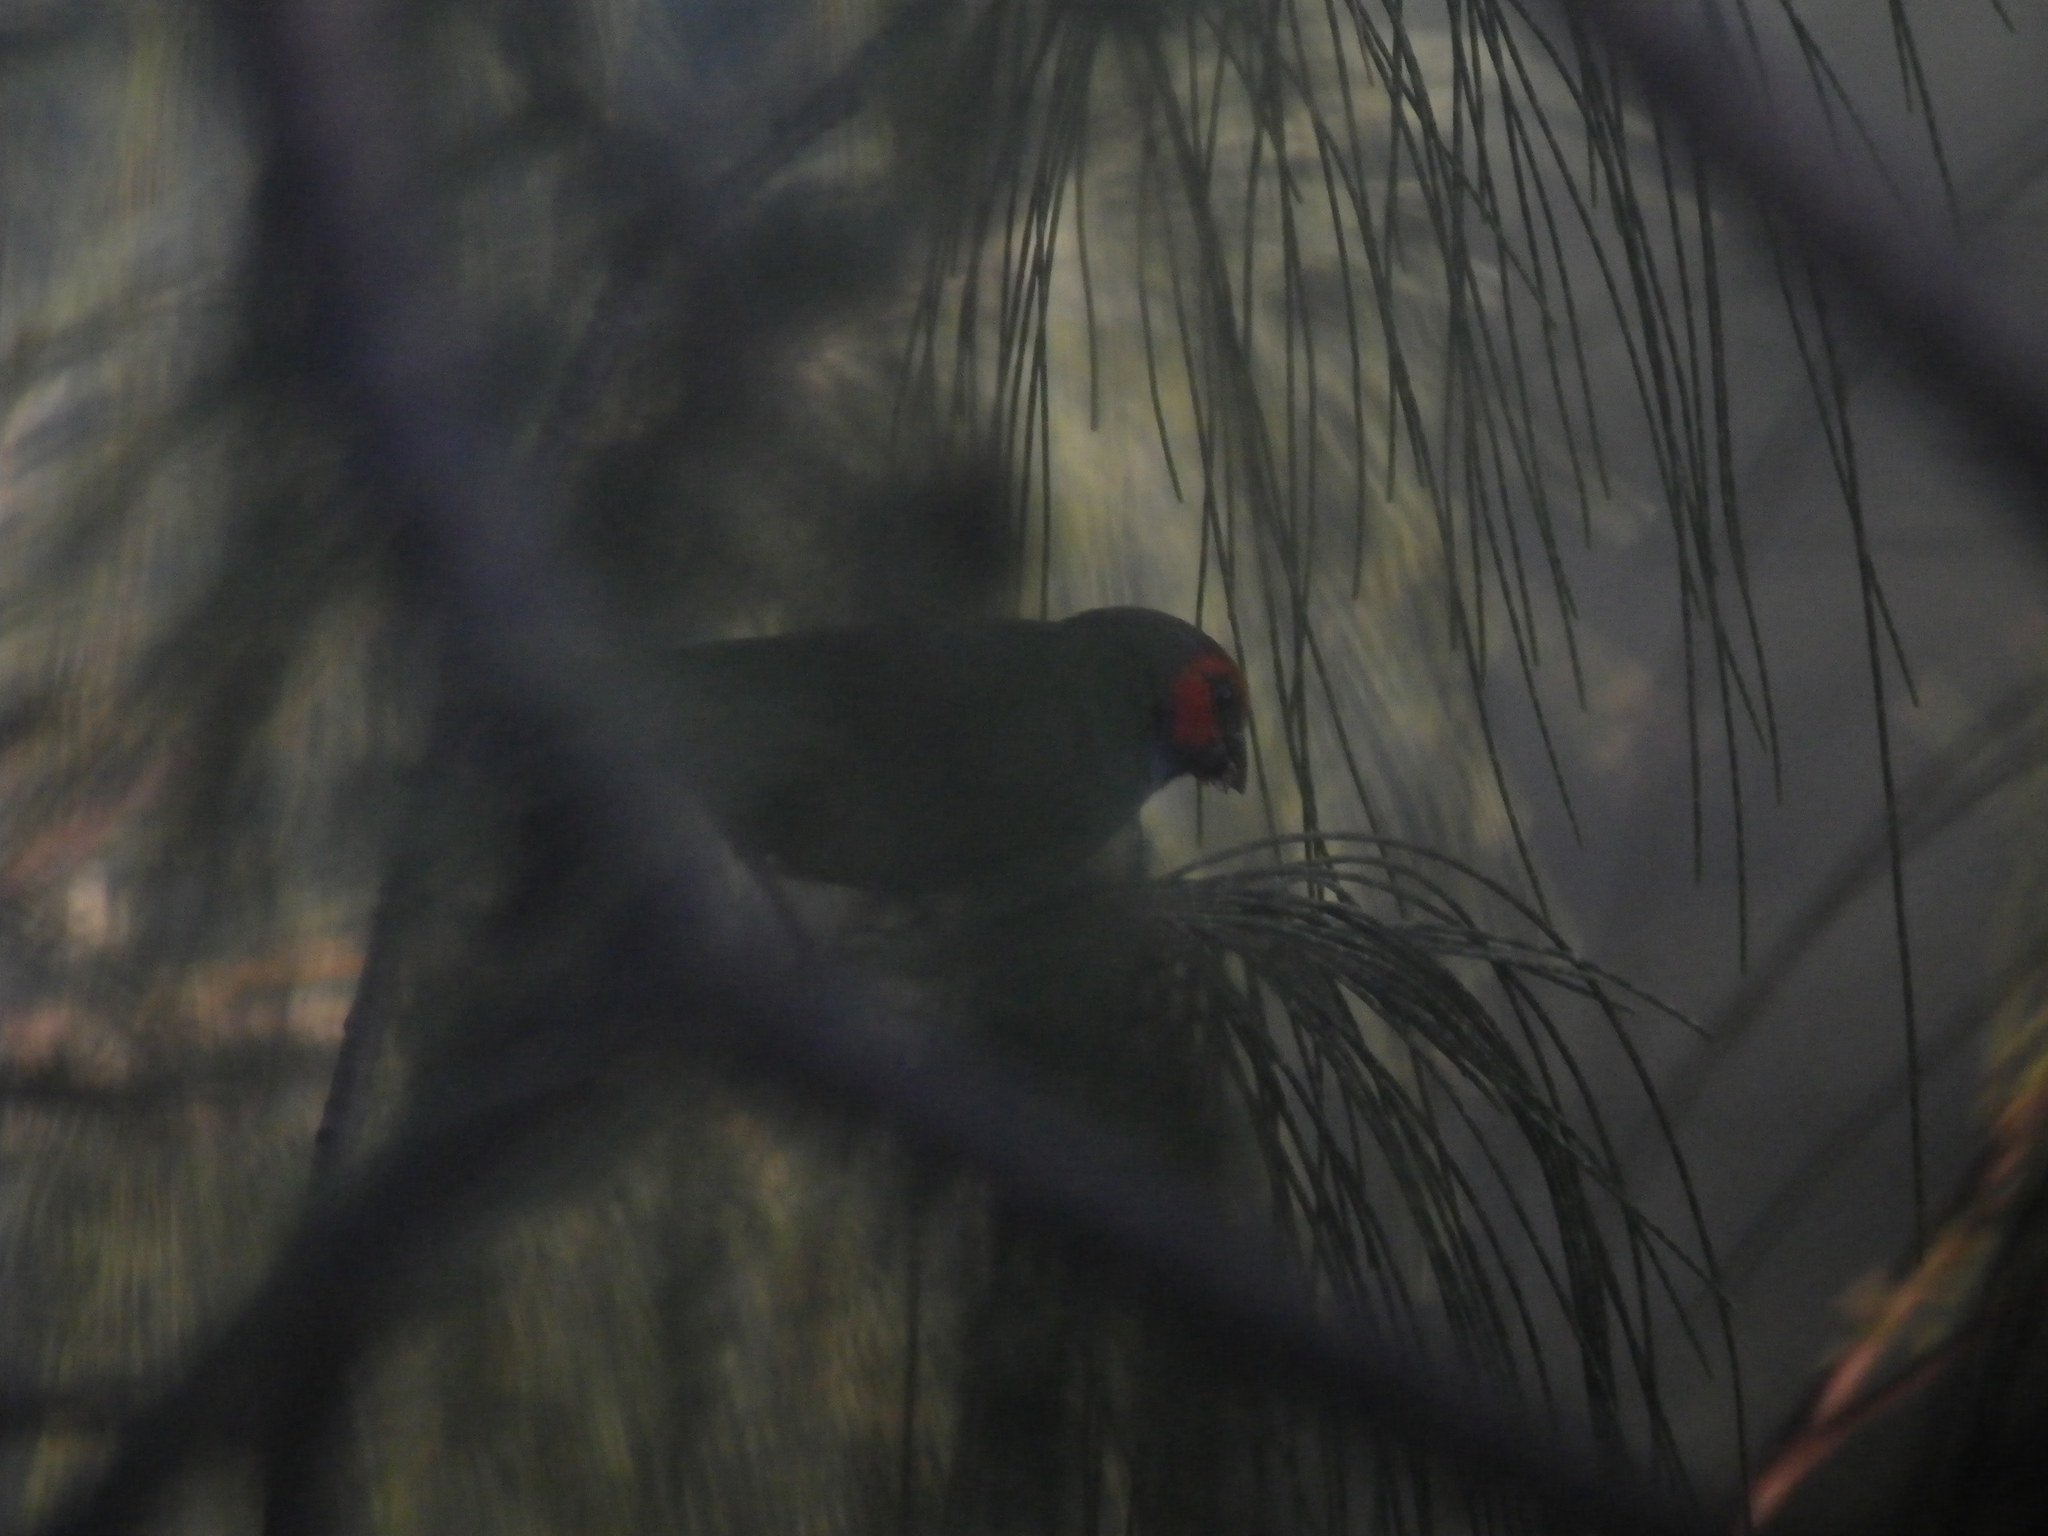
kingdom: Animalia
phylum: Chordata
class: Aves
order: Passeriformes
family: Estrildidae
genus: Erythrura
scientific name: Erythrura pealii
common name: Fiji parrotfinch
